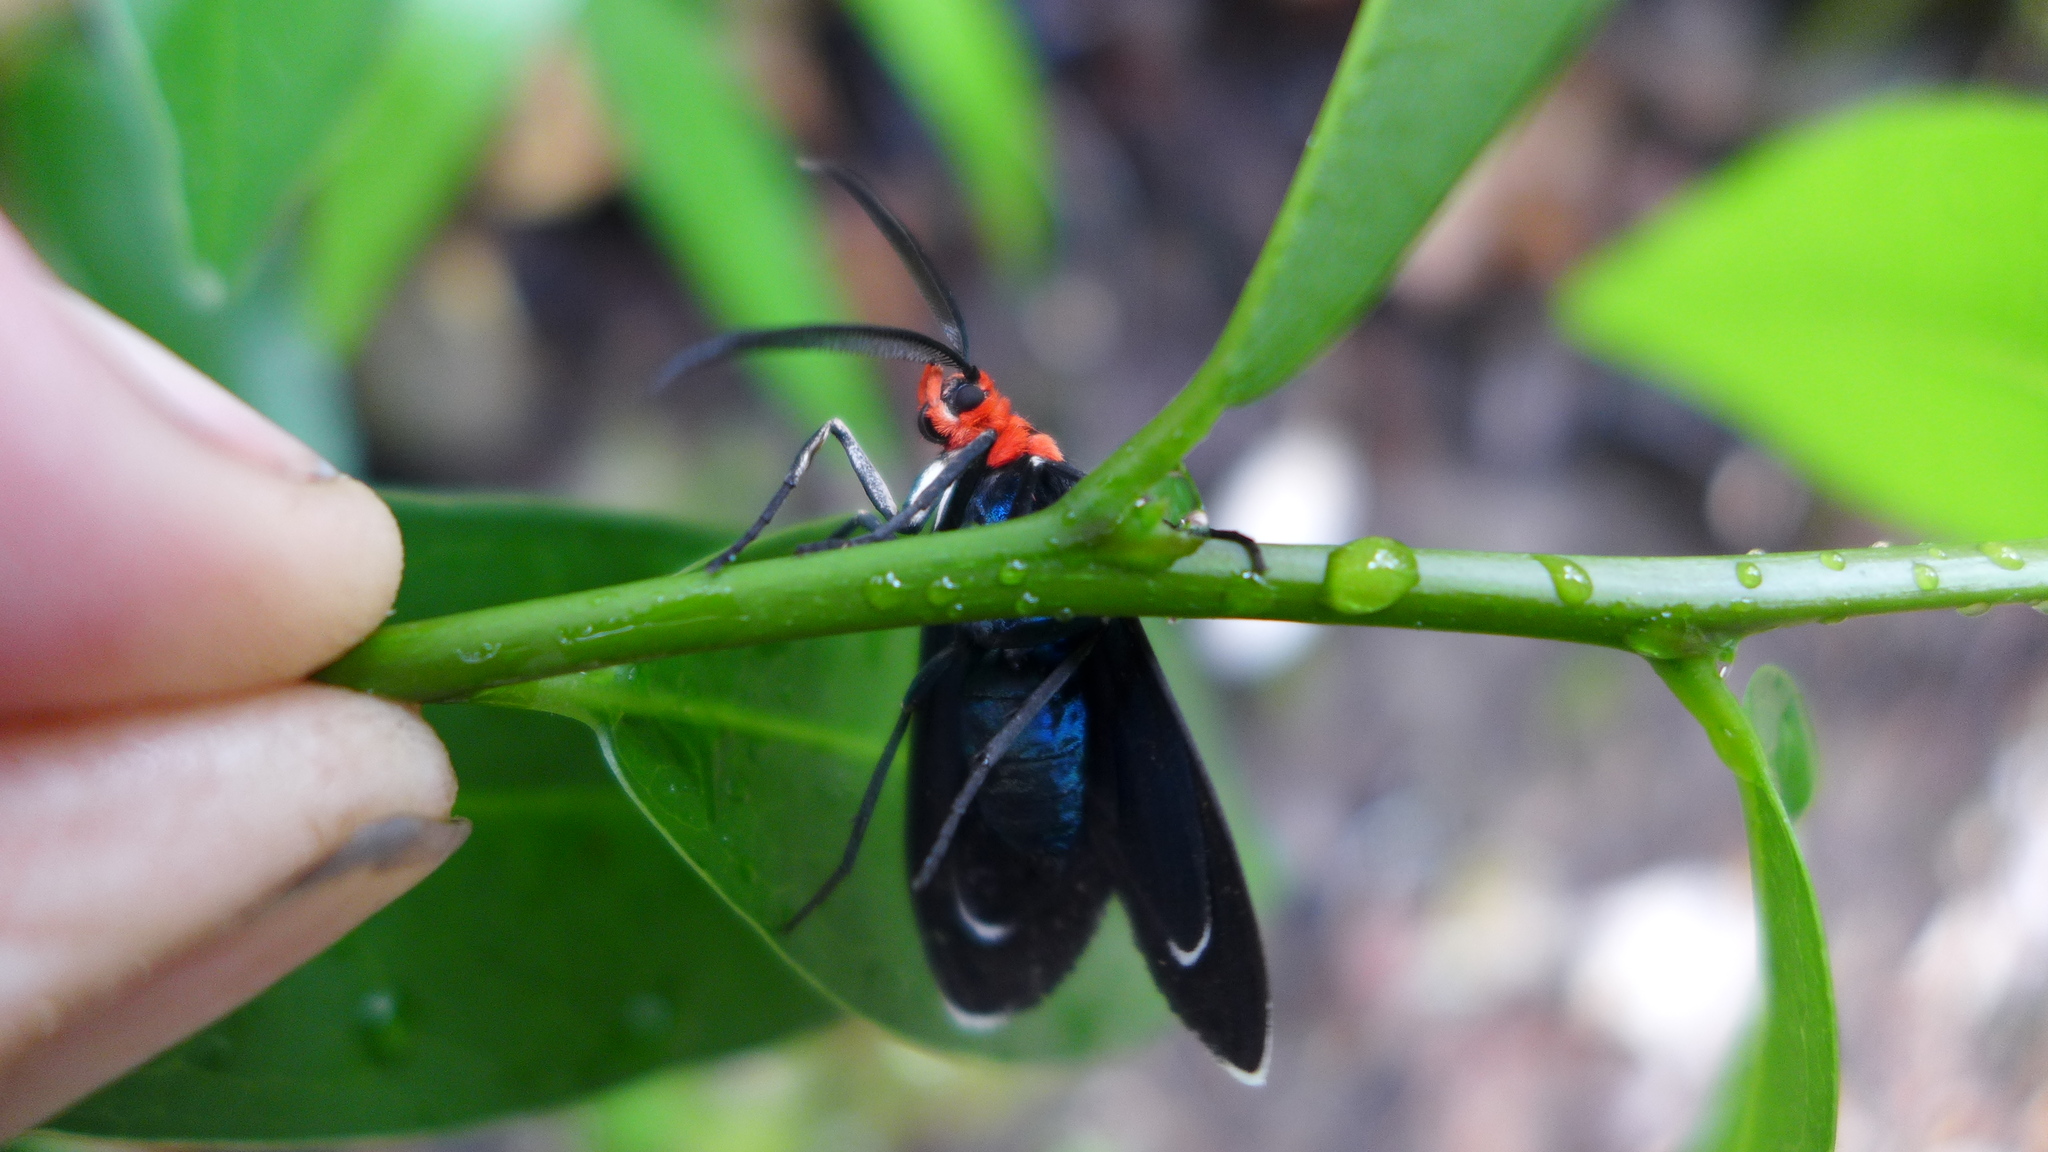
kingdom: Animalia
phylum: Arthropoda
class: Insecta
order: Lepidoptera
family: Erebidae
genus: Ctenucha
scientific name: Ctenucha rubroscapus
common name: Red-shouldered ctenucha
